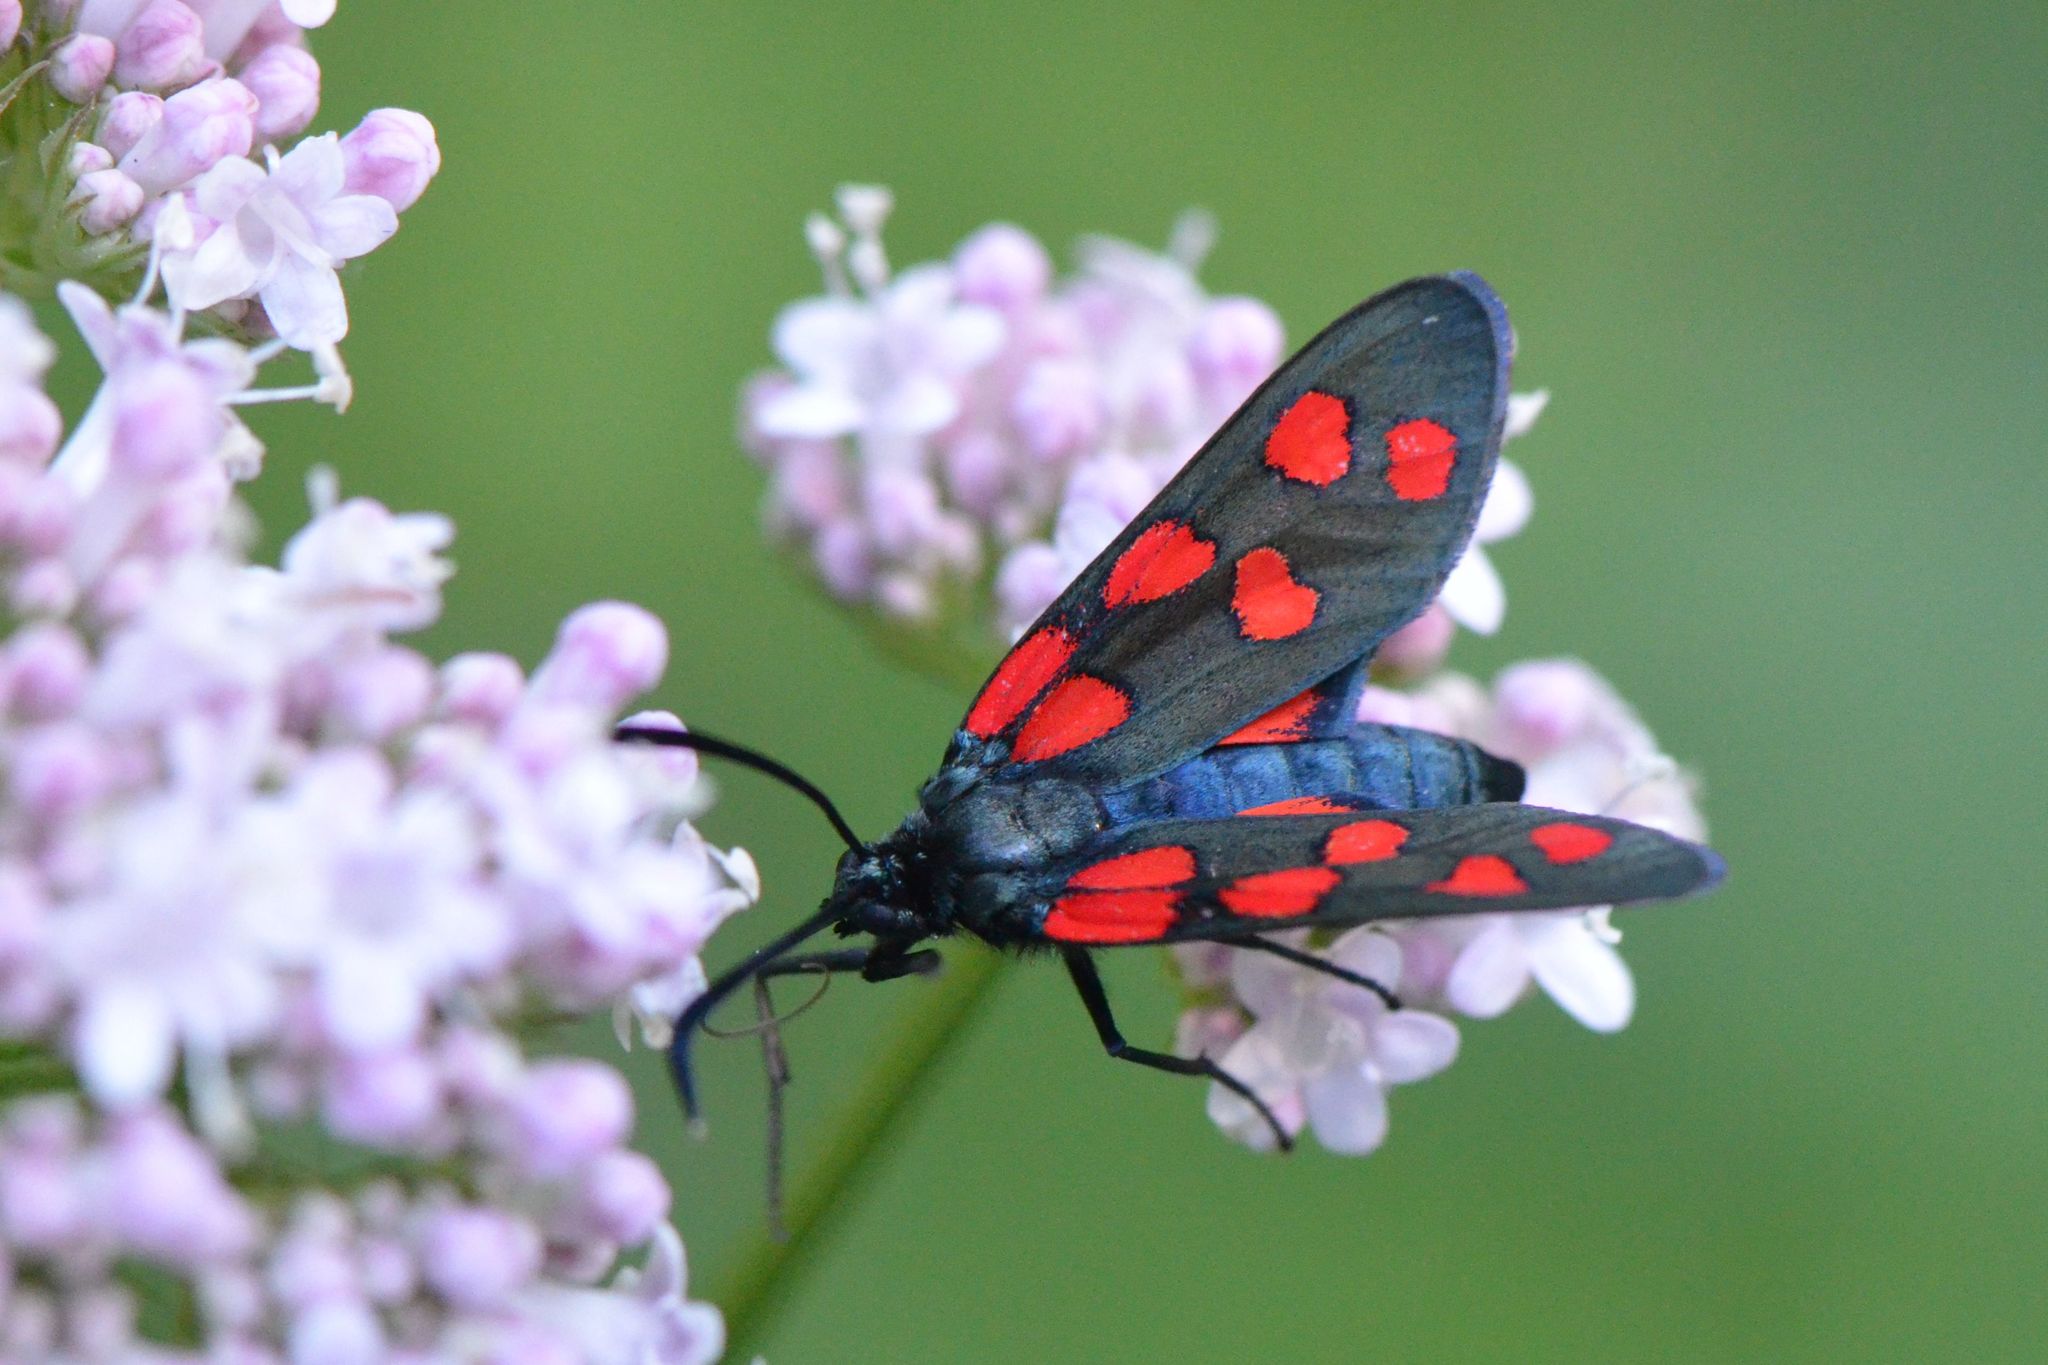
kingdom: Animalia
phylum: Arthropoda
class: Insecta
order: Lepidoptera
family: Zygaenidae
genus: Zygaena
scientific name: Zygaena transalpina
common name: Southern six spot burnet
